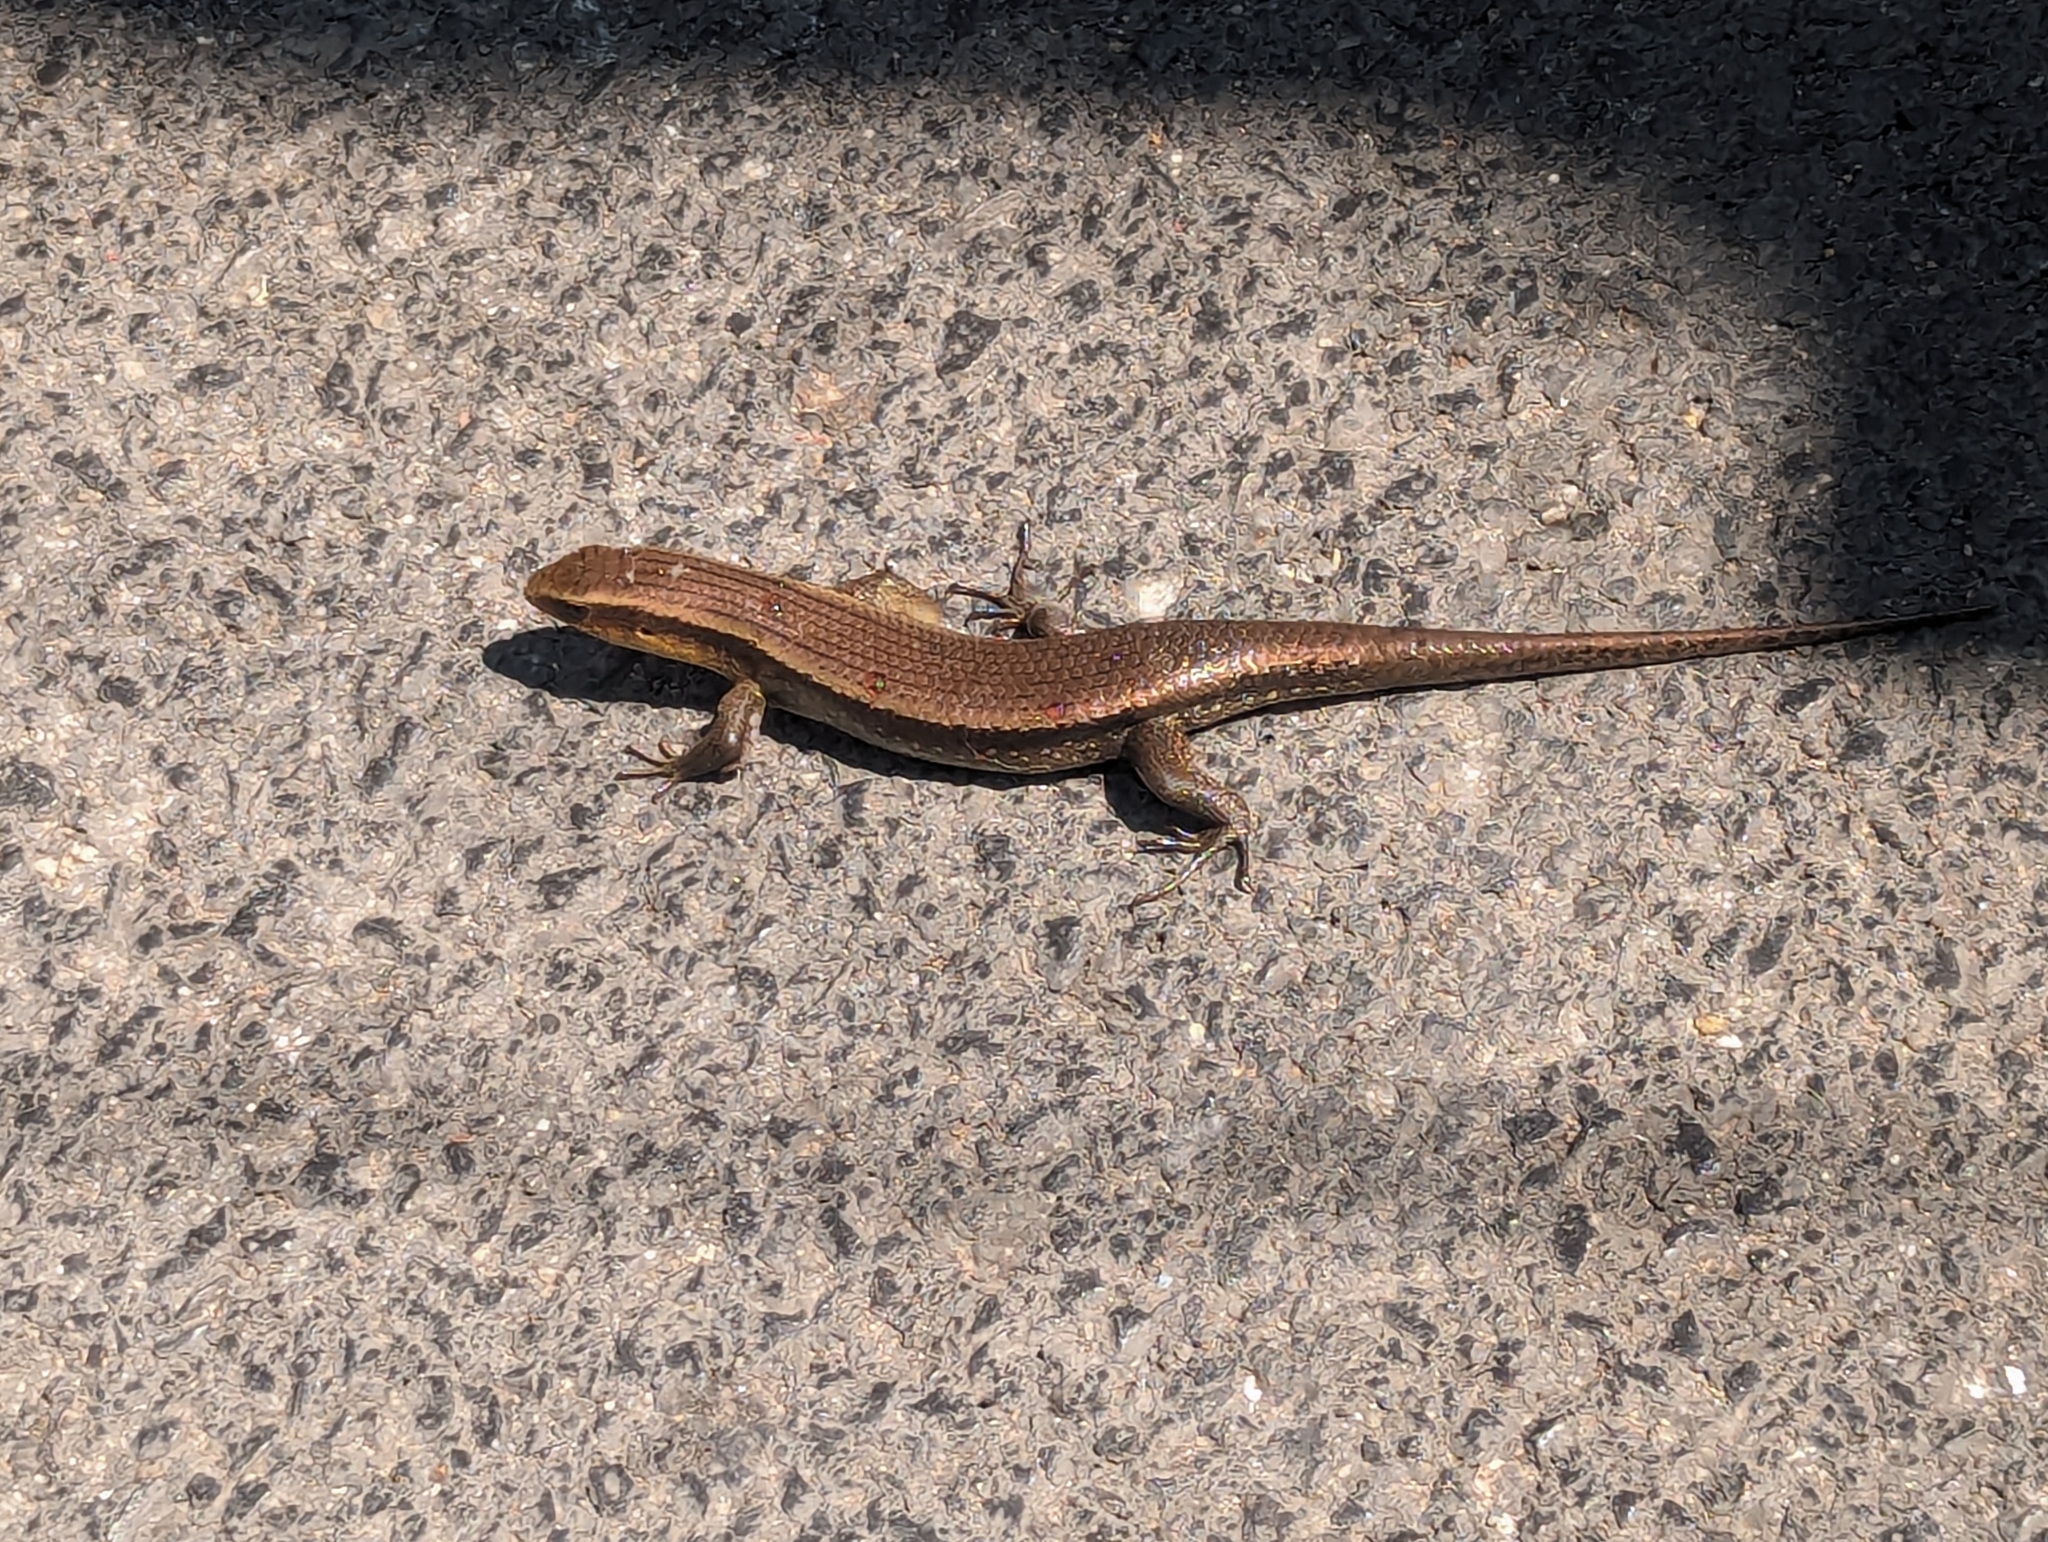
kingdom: Animalia
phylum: Chordata
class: Squamata
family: Scincidae
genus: Eutropis
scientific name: Eutropis multifasciata
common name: Common mabuya
